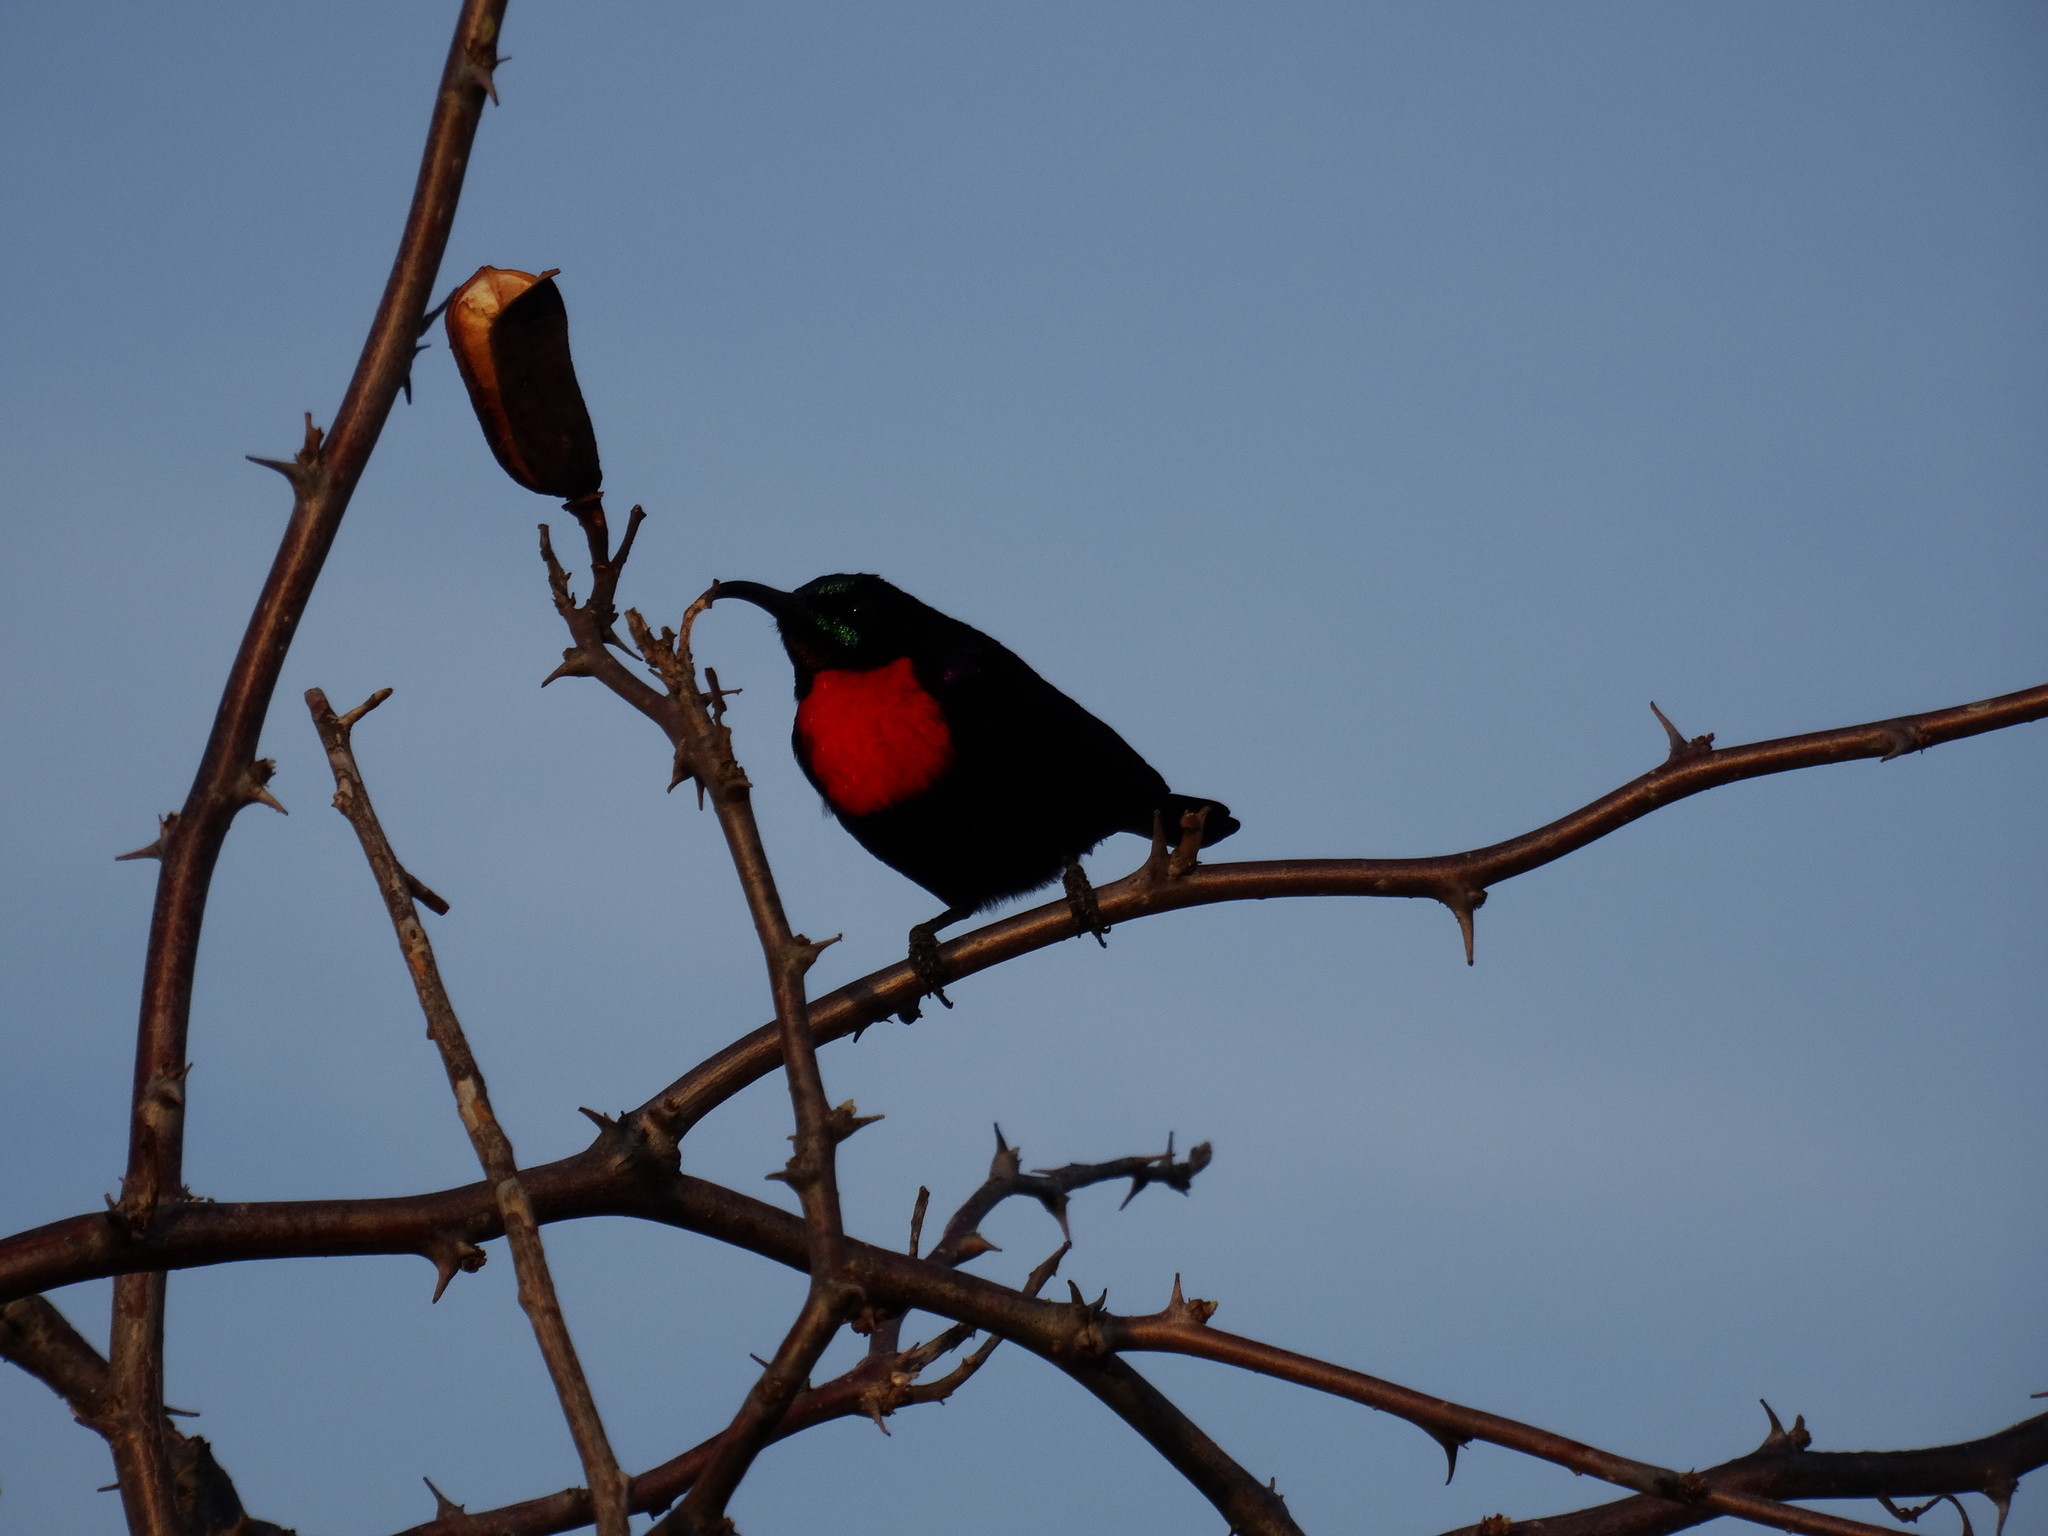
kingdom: Animalia
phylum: Chordata
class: Aves
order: Passeriformes
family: Nectariniidae
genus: Chalcomitra
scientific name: Chalcomitra hunteri
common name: Hunter's sunbird
